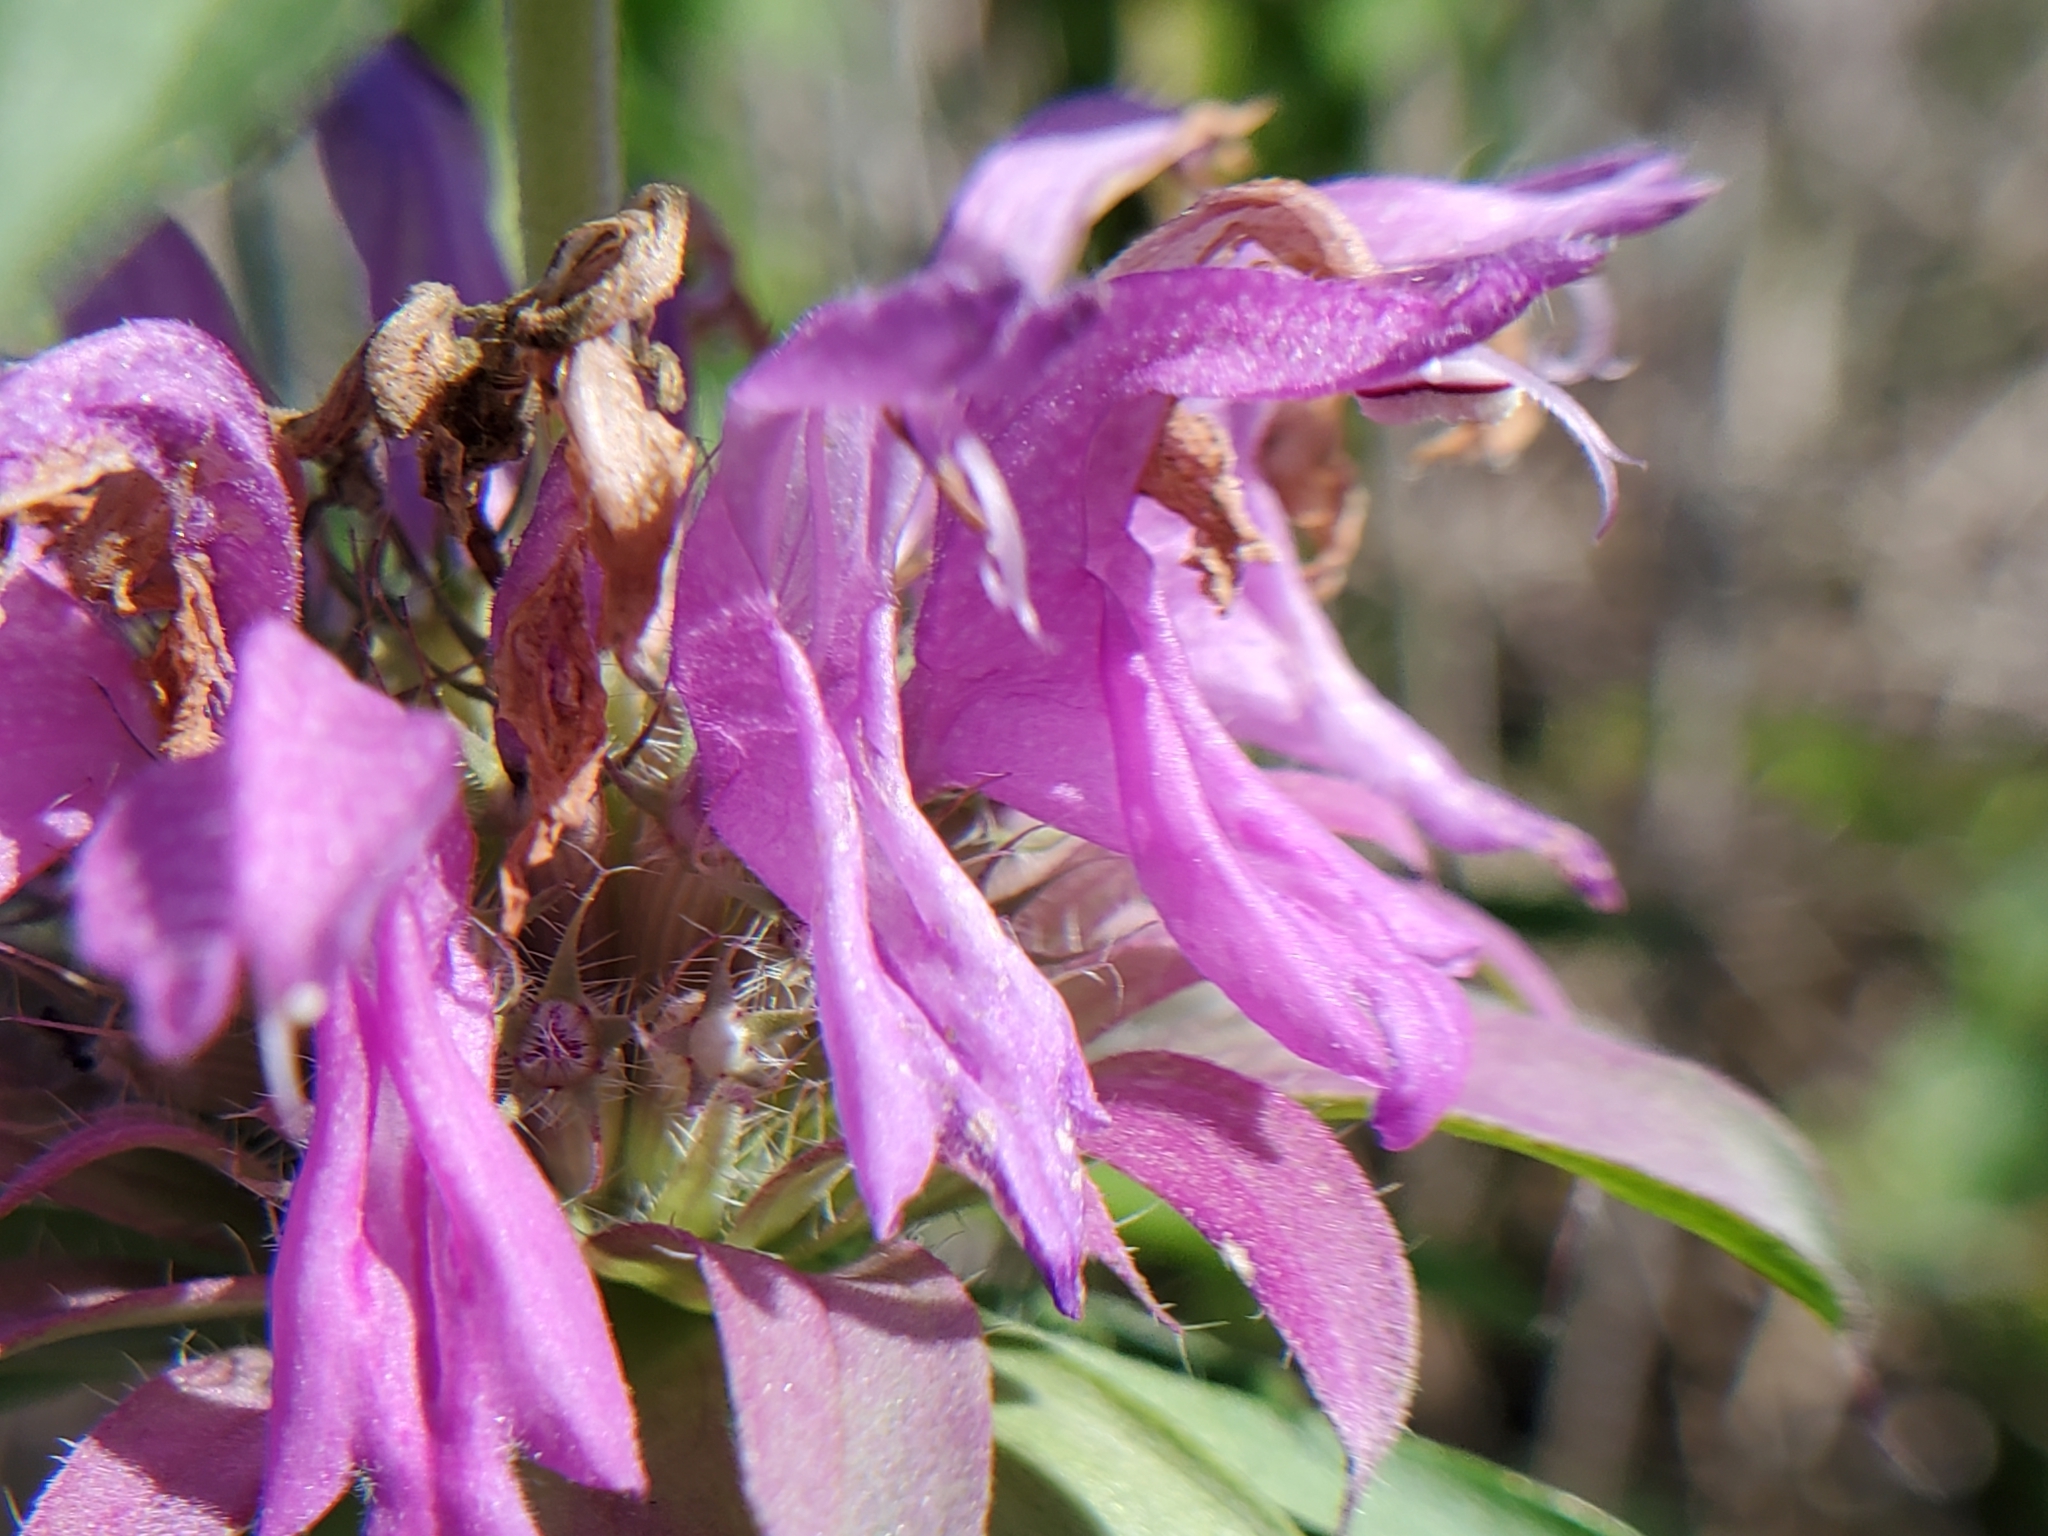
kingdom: Plantae
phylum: Tracheophyta
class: Magnoliopsida
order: Lamiales
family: Lamiaceae
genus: Monarda
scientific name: Monarda citriodora
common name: Lemon beebalm
